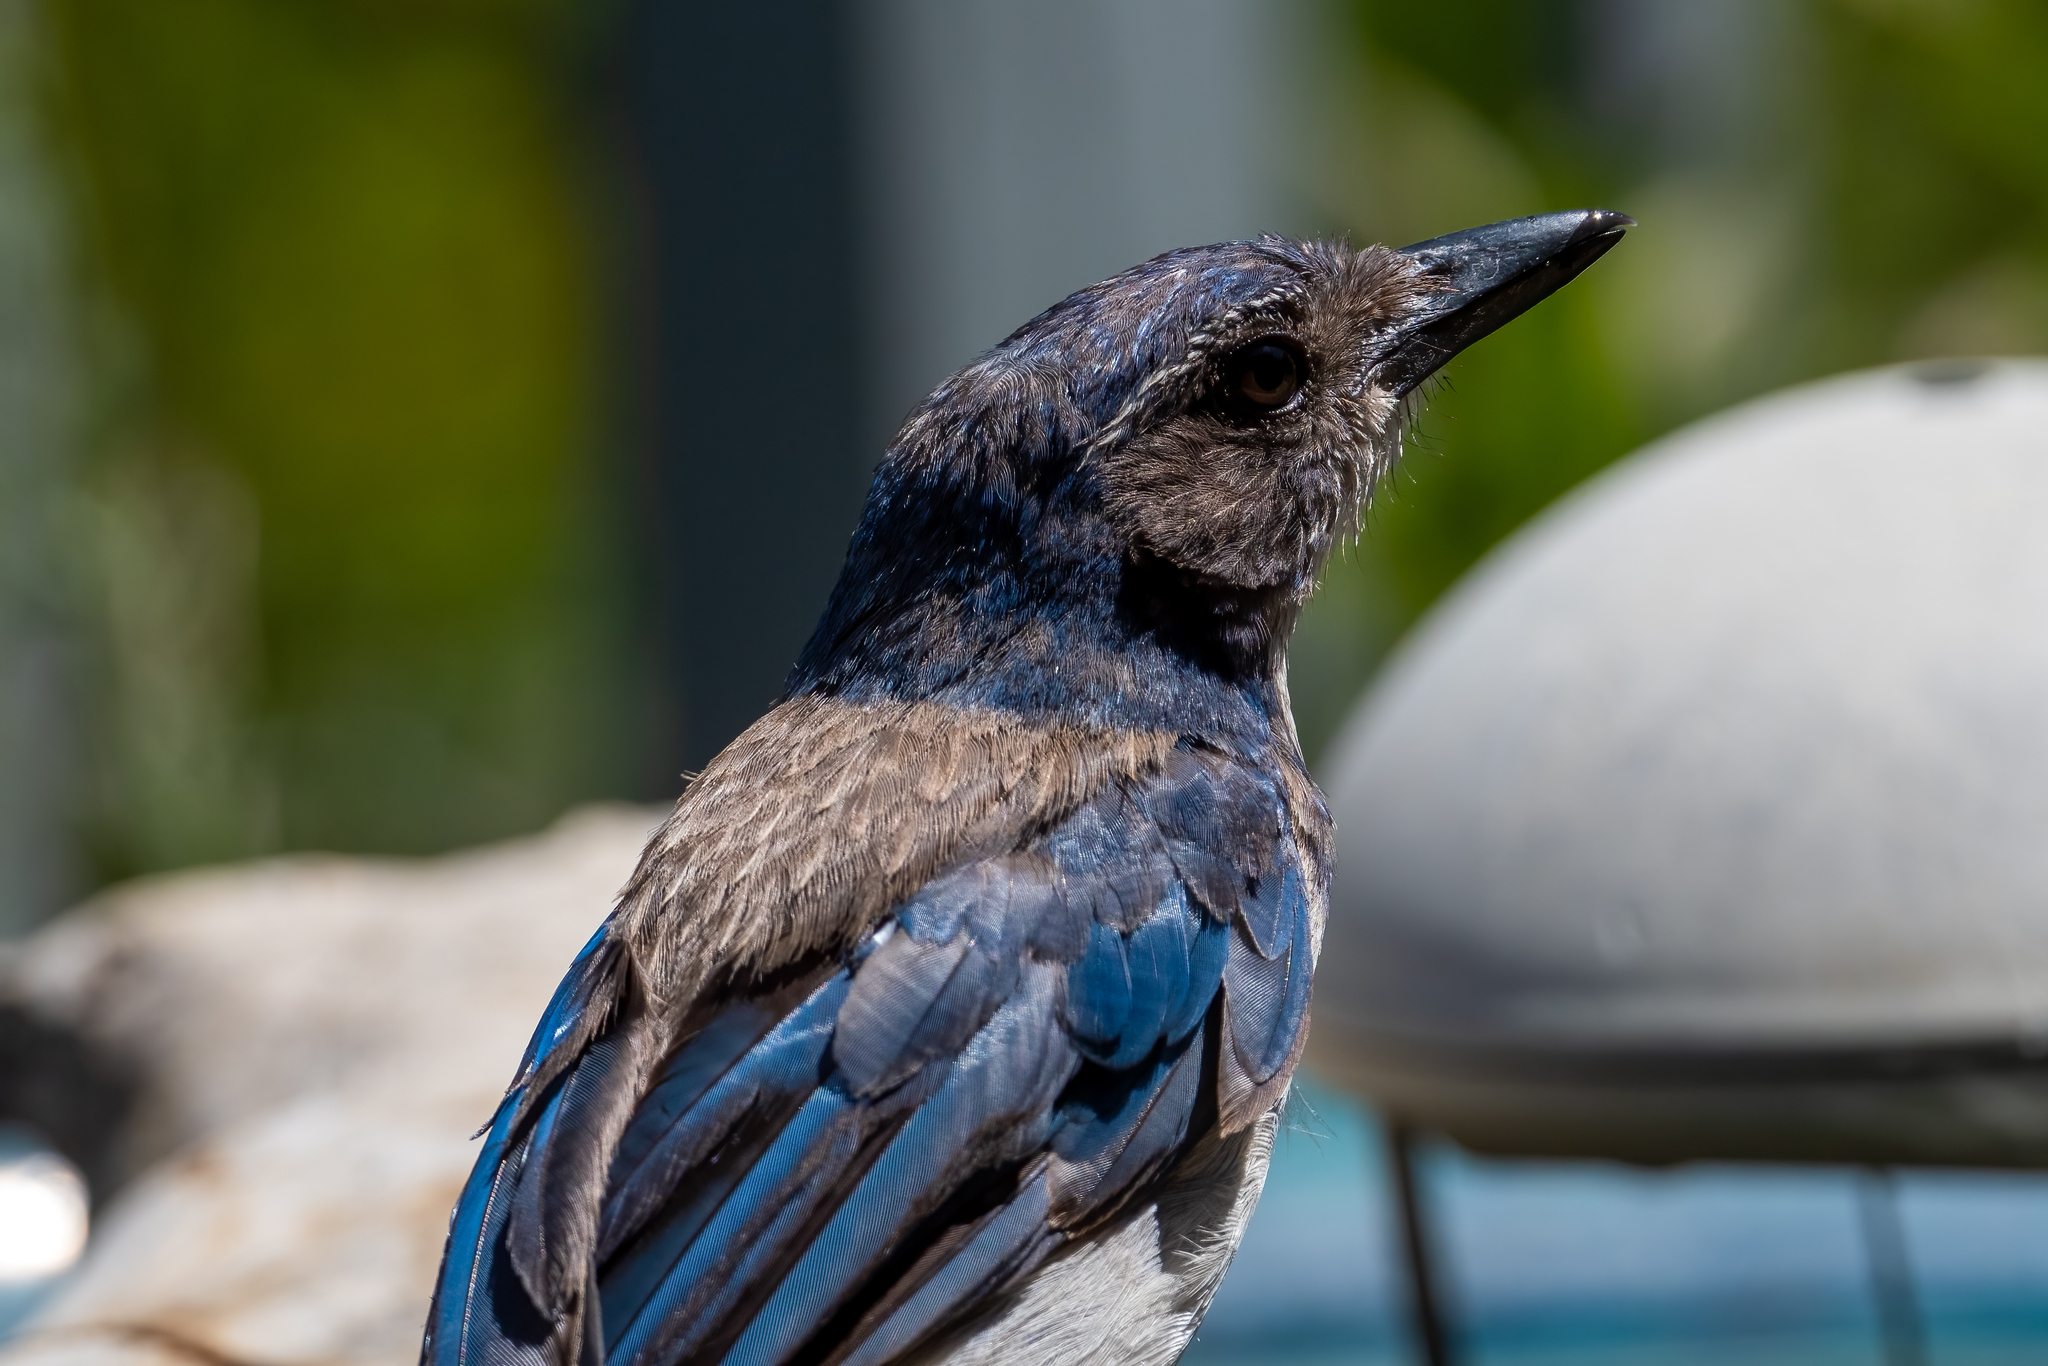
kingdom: Animalia
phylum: Chordata
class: Aves
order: Passeriformes
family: Corvidae
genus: Aphelocoma
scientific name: Aphelocoma californica
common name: California scrub-jay
